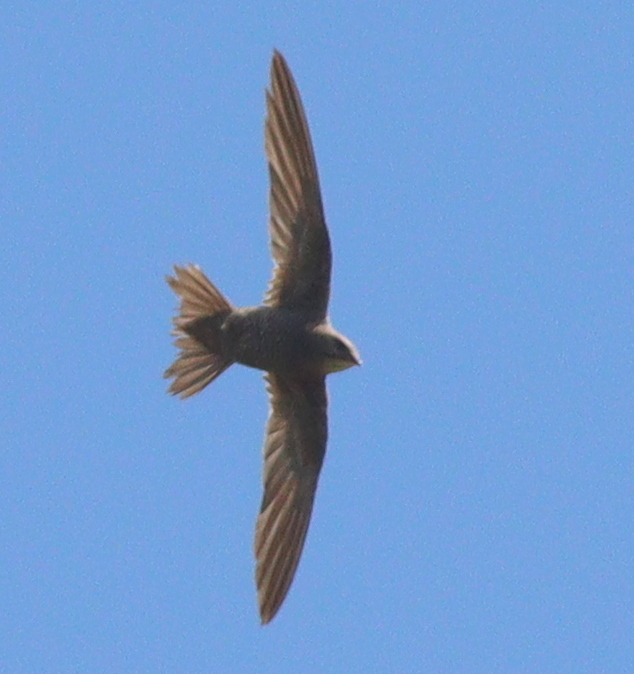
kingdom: Animalia
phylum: Chordata
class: Aves
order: Apodiformes
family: Apodidae
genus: Tachymarptis
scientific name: Tachymarptis aequatorialis
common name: Mottled swift
